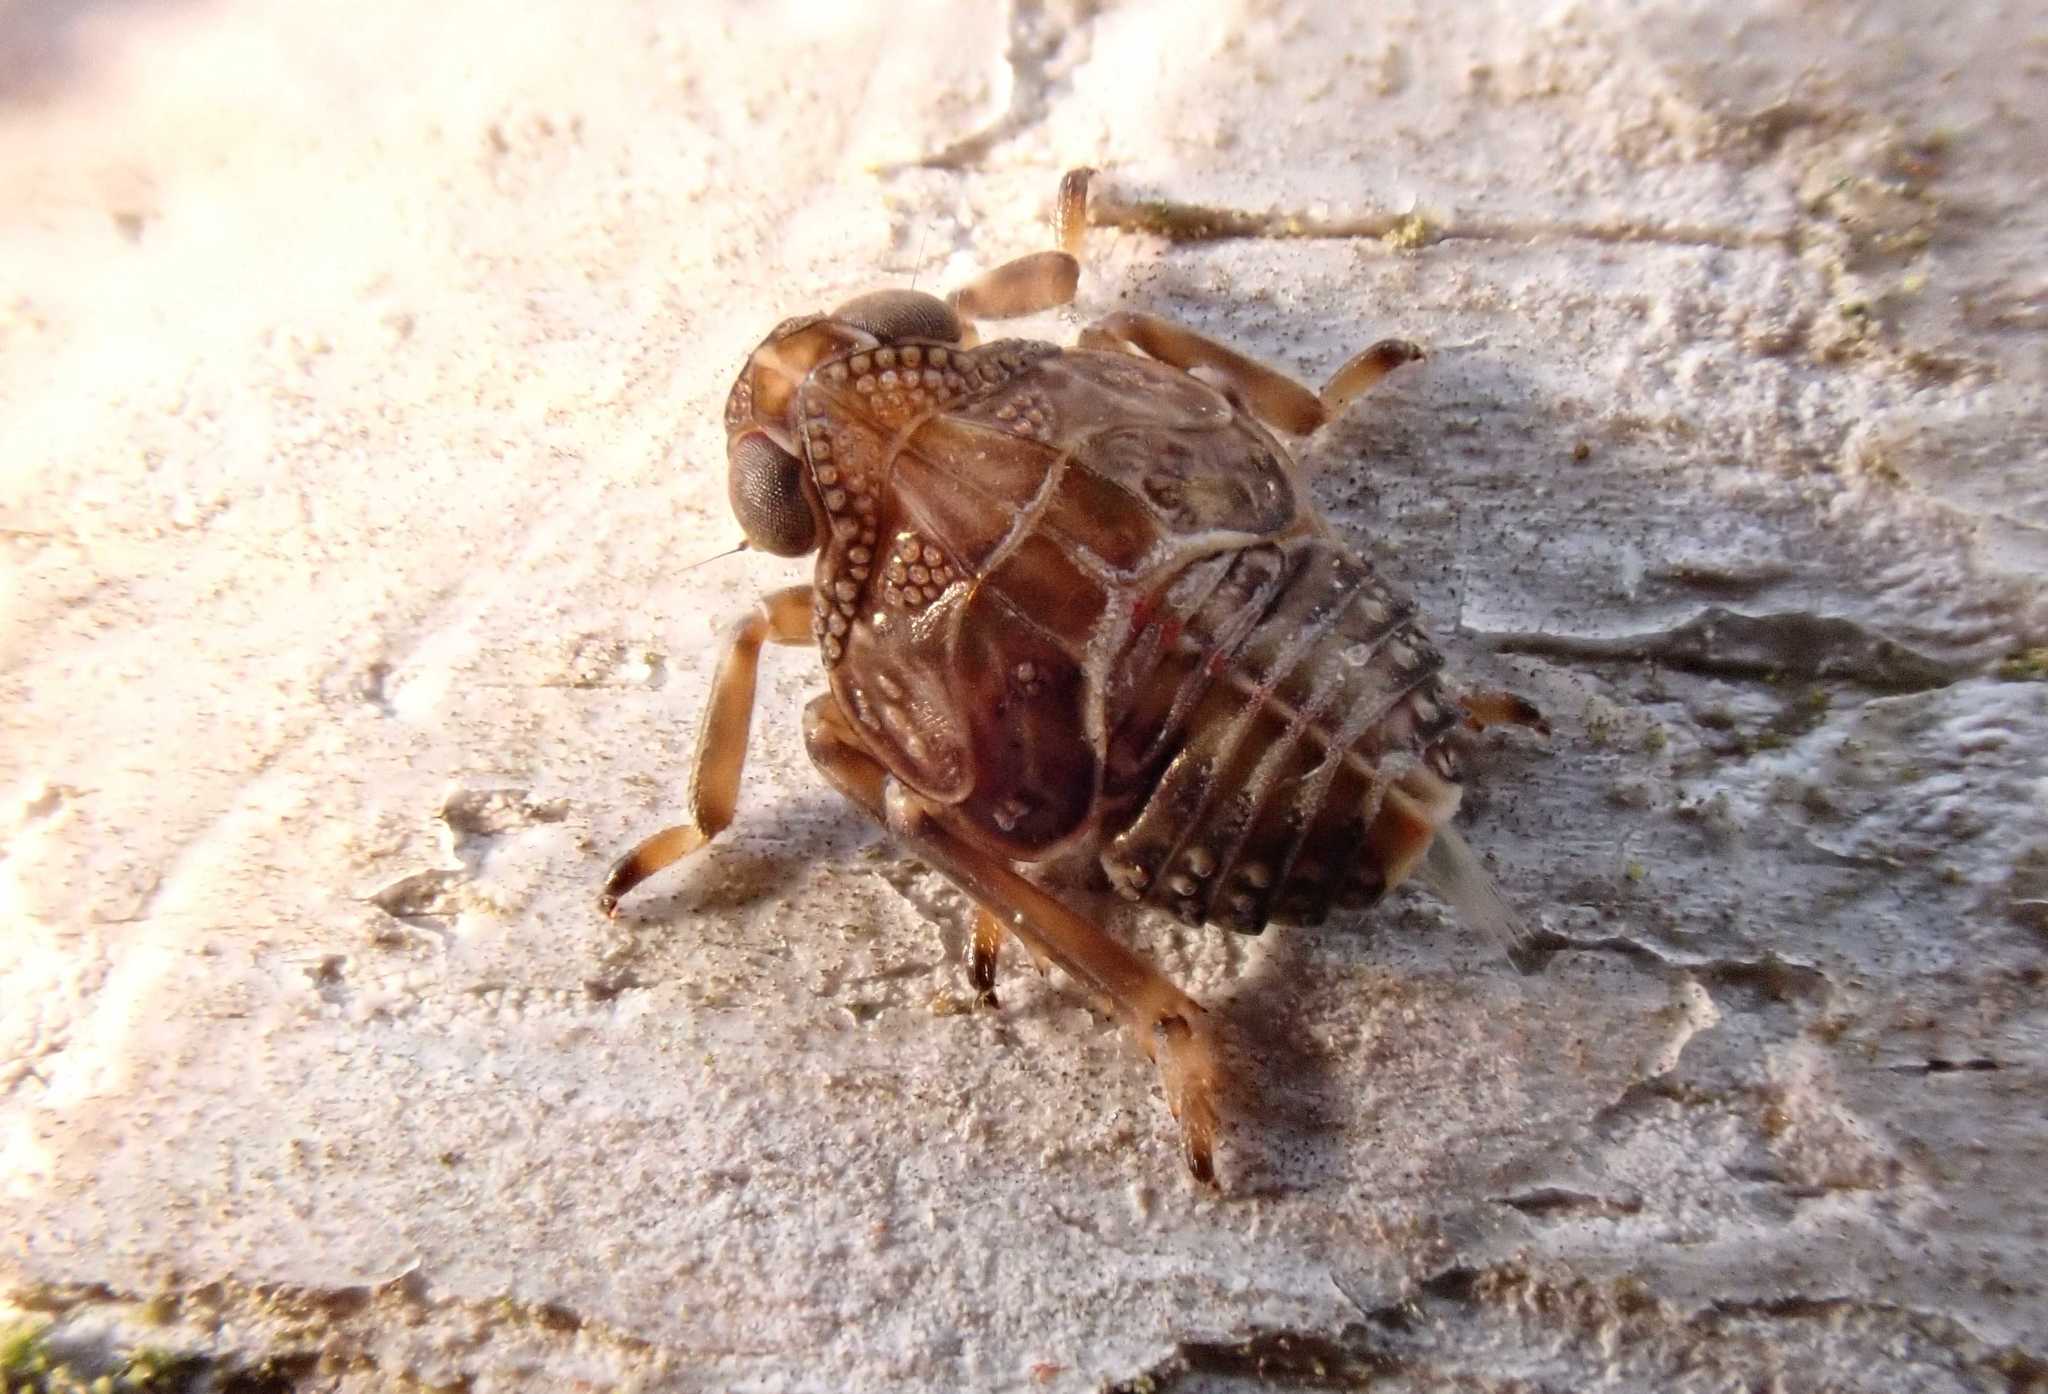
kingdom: Animalia
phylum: Arthropoda
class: Insecta
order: Hemiptera
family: Issidae
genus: Issus
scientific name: Issus
